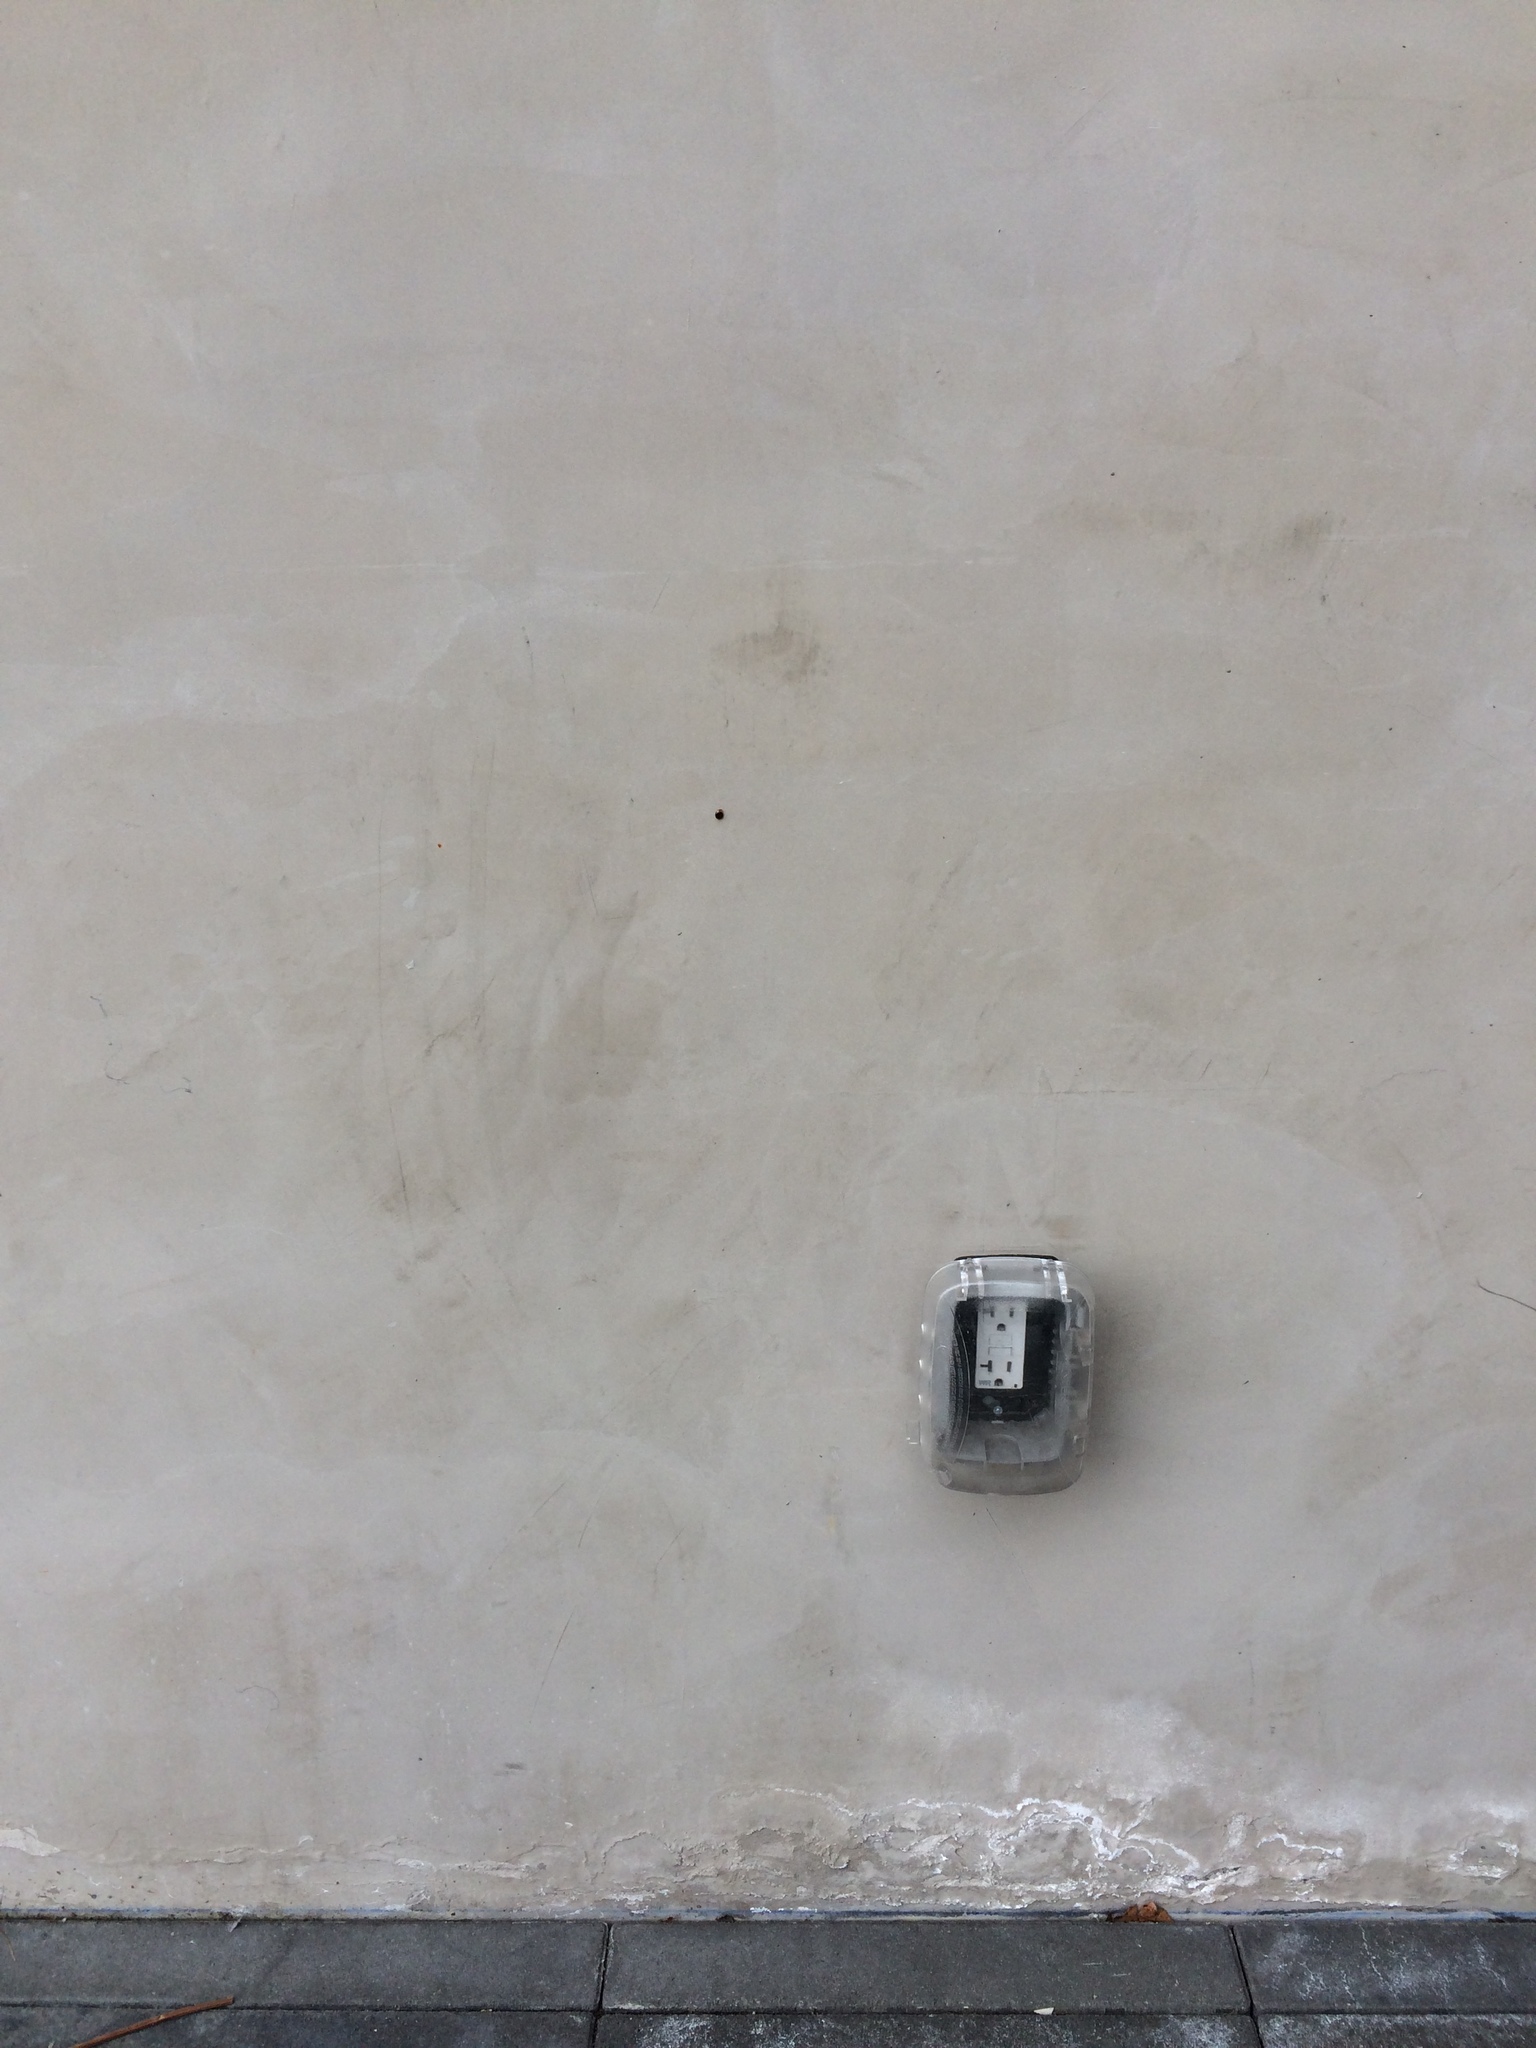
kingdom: Animalia
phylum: Mollusca
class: Gastropoda
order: Stylommatophora
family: Oxychilidae
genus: Oxychilus
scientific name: Oxychilus draparnaudi
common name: Draparnaud's glass snail
